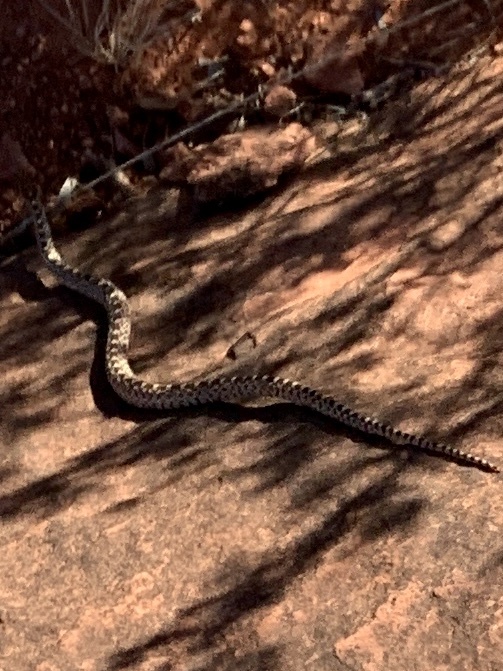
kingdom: Animalia
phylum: Chordata
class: Squamata
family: Colubridae
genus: Pituophis
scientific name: Pituophis catenifer
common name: Gopher snake
